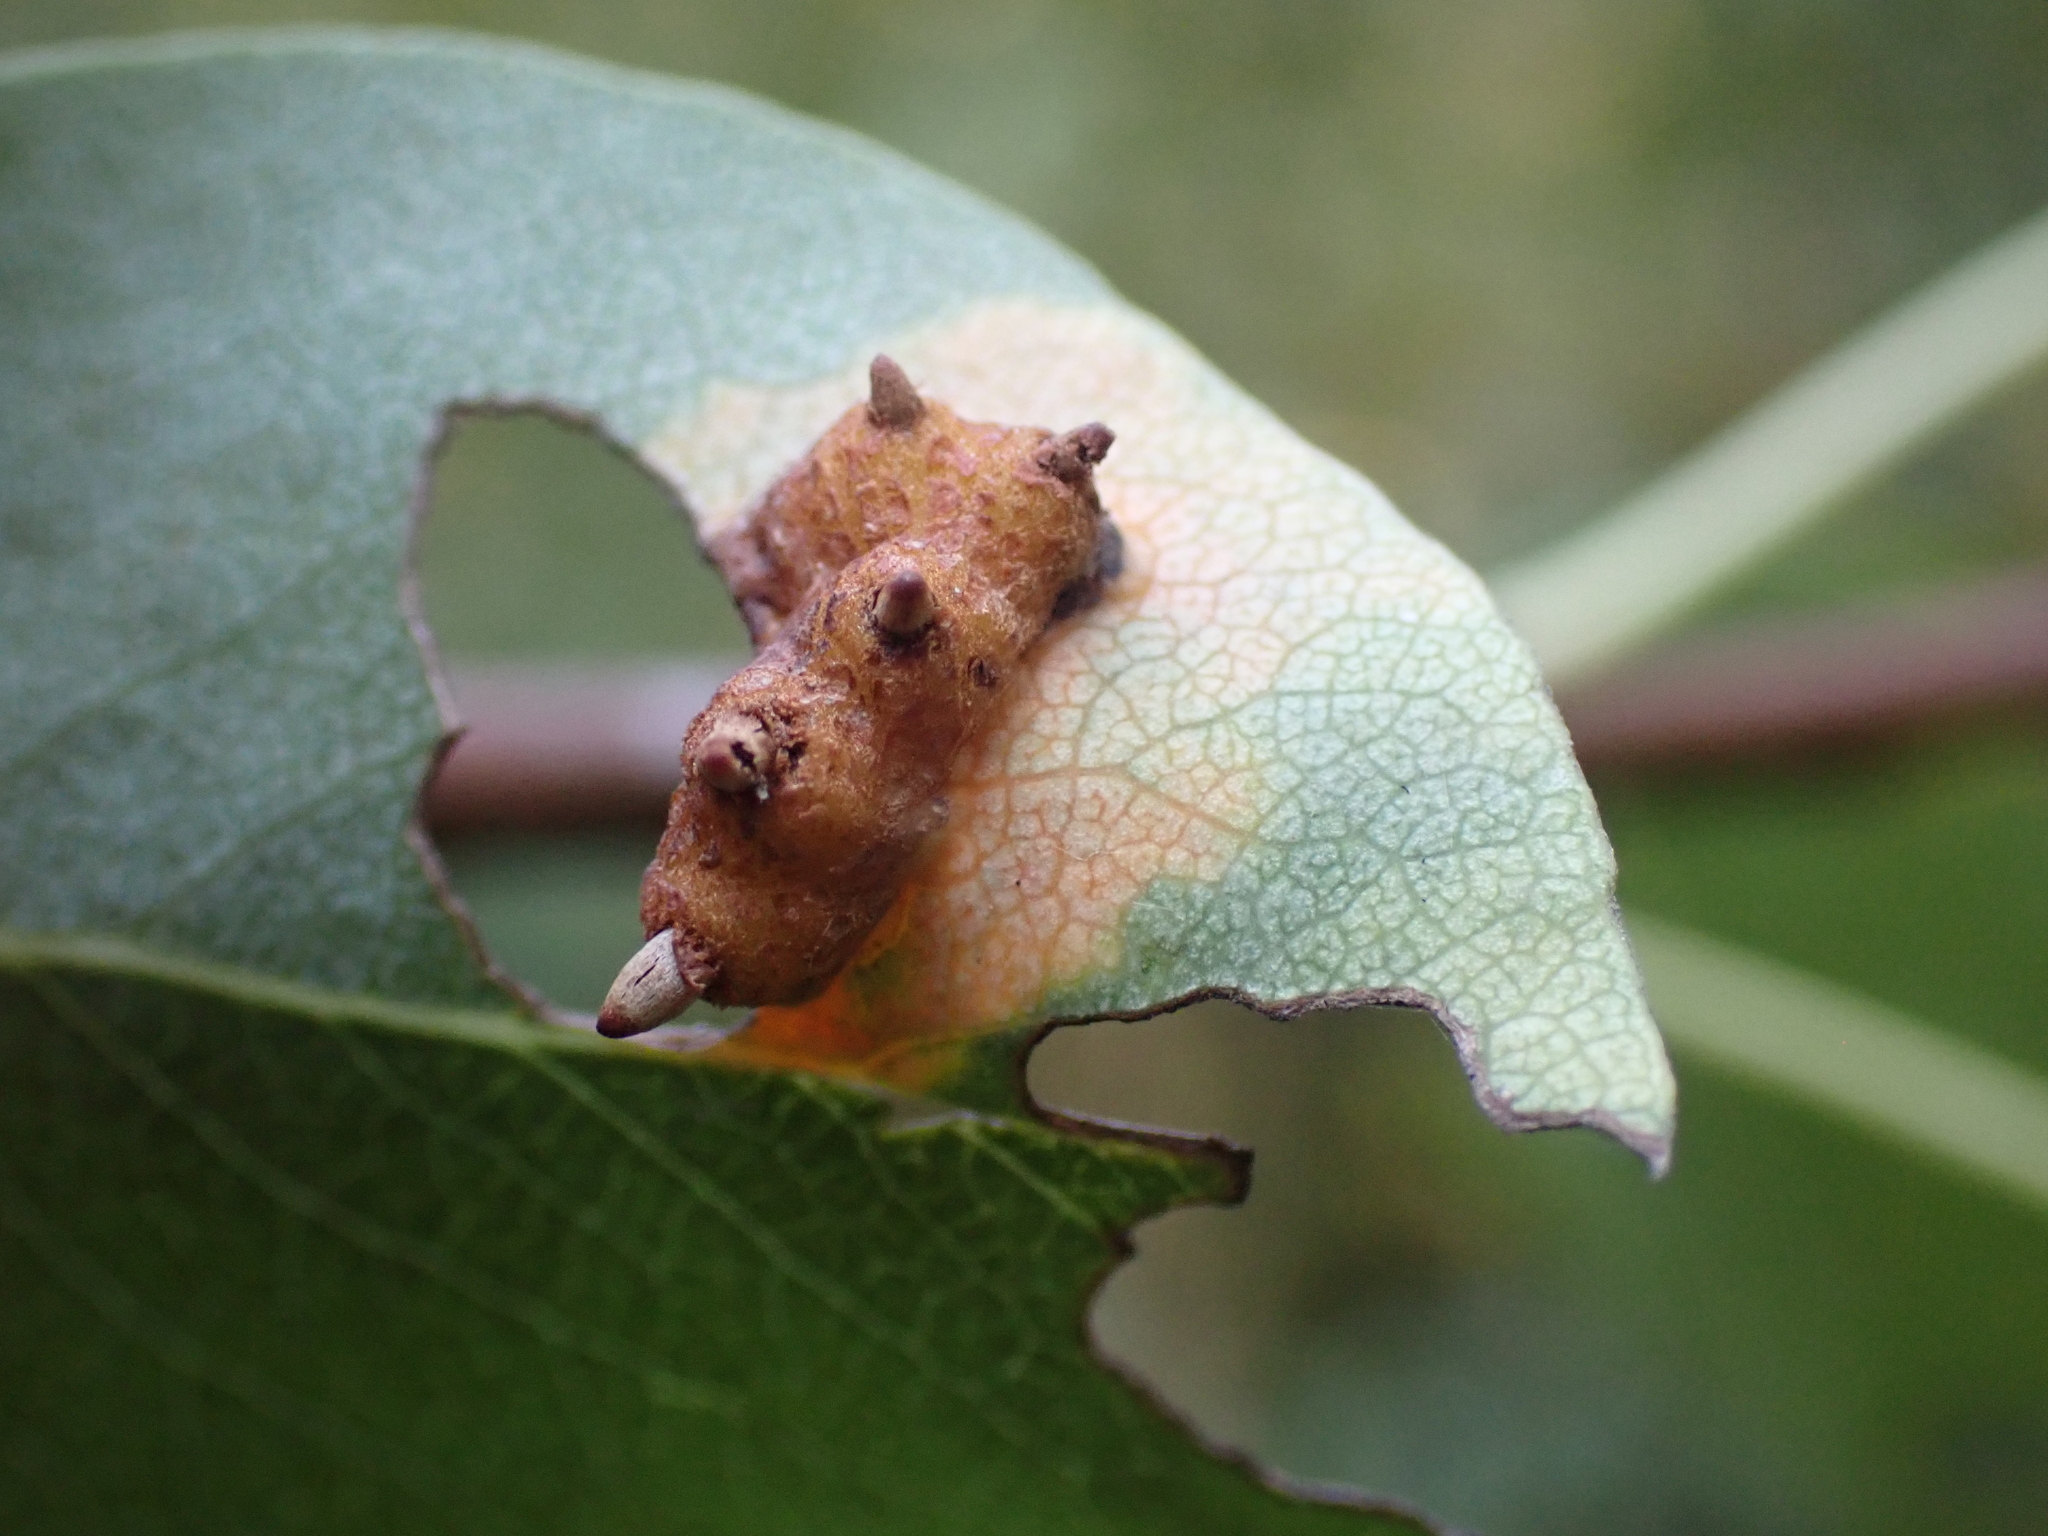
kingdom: Fungi
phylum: Basidiomycota
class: Pucciniomycetes
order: Pucciniales
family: Gymnosporangiaceae
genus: Gymnosporangium
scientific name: Gymnosporangium sabinae
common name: Pear trellis rust fungus
